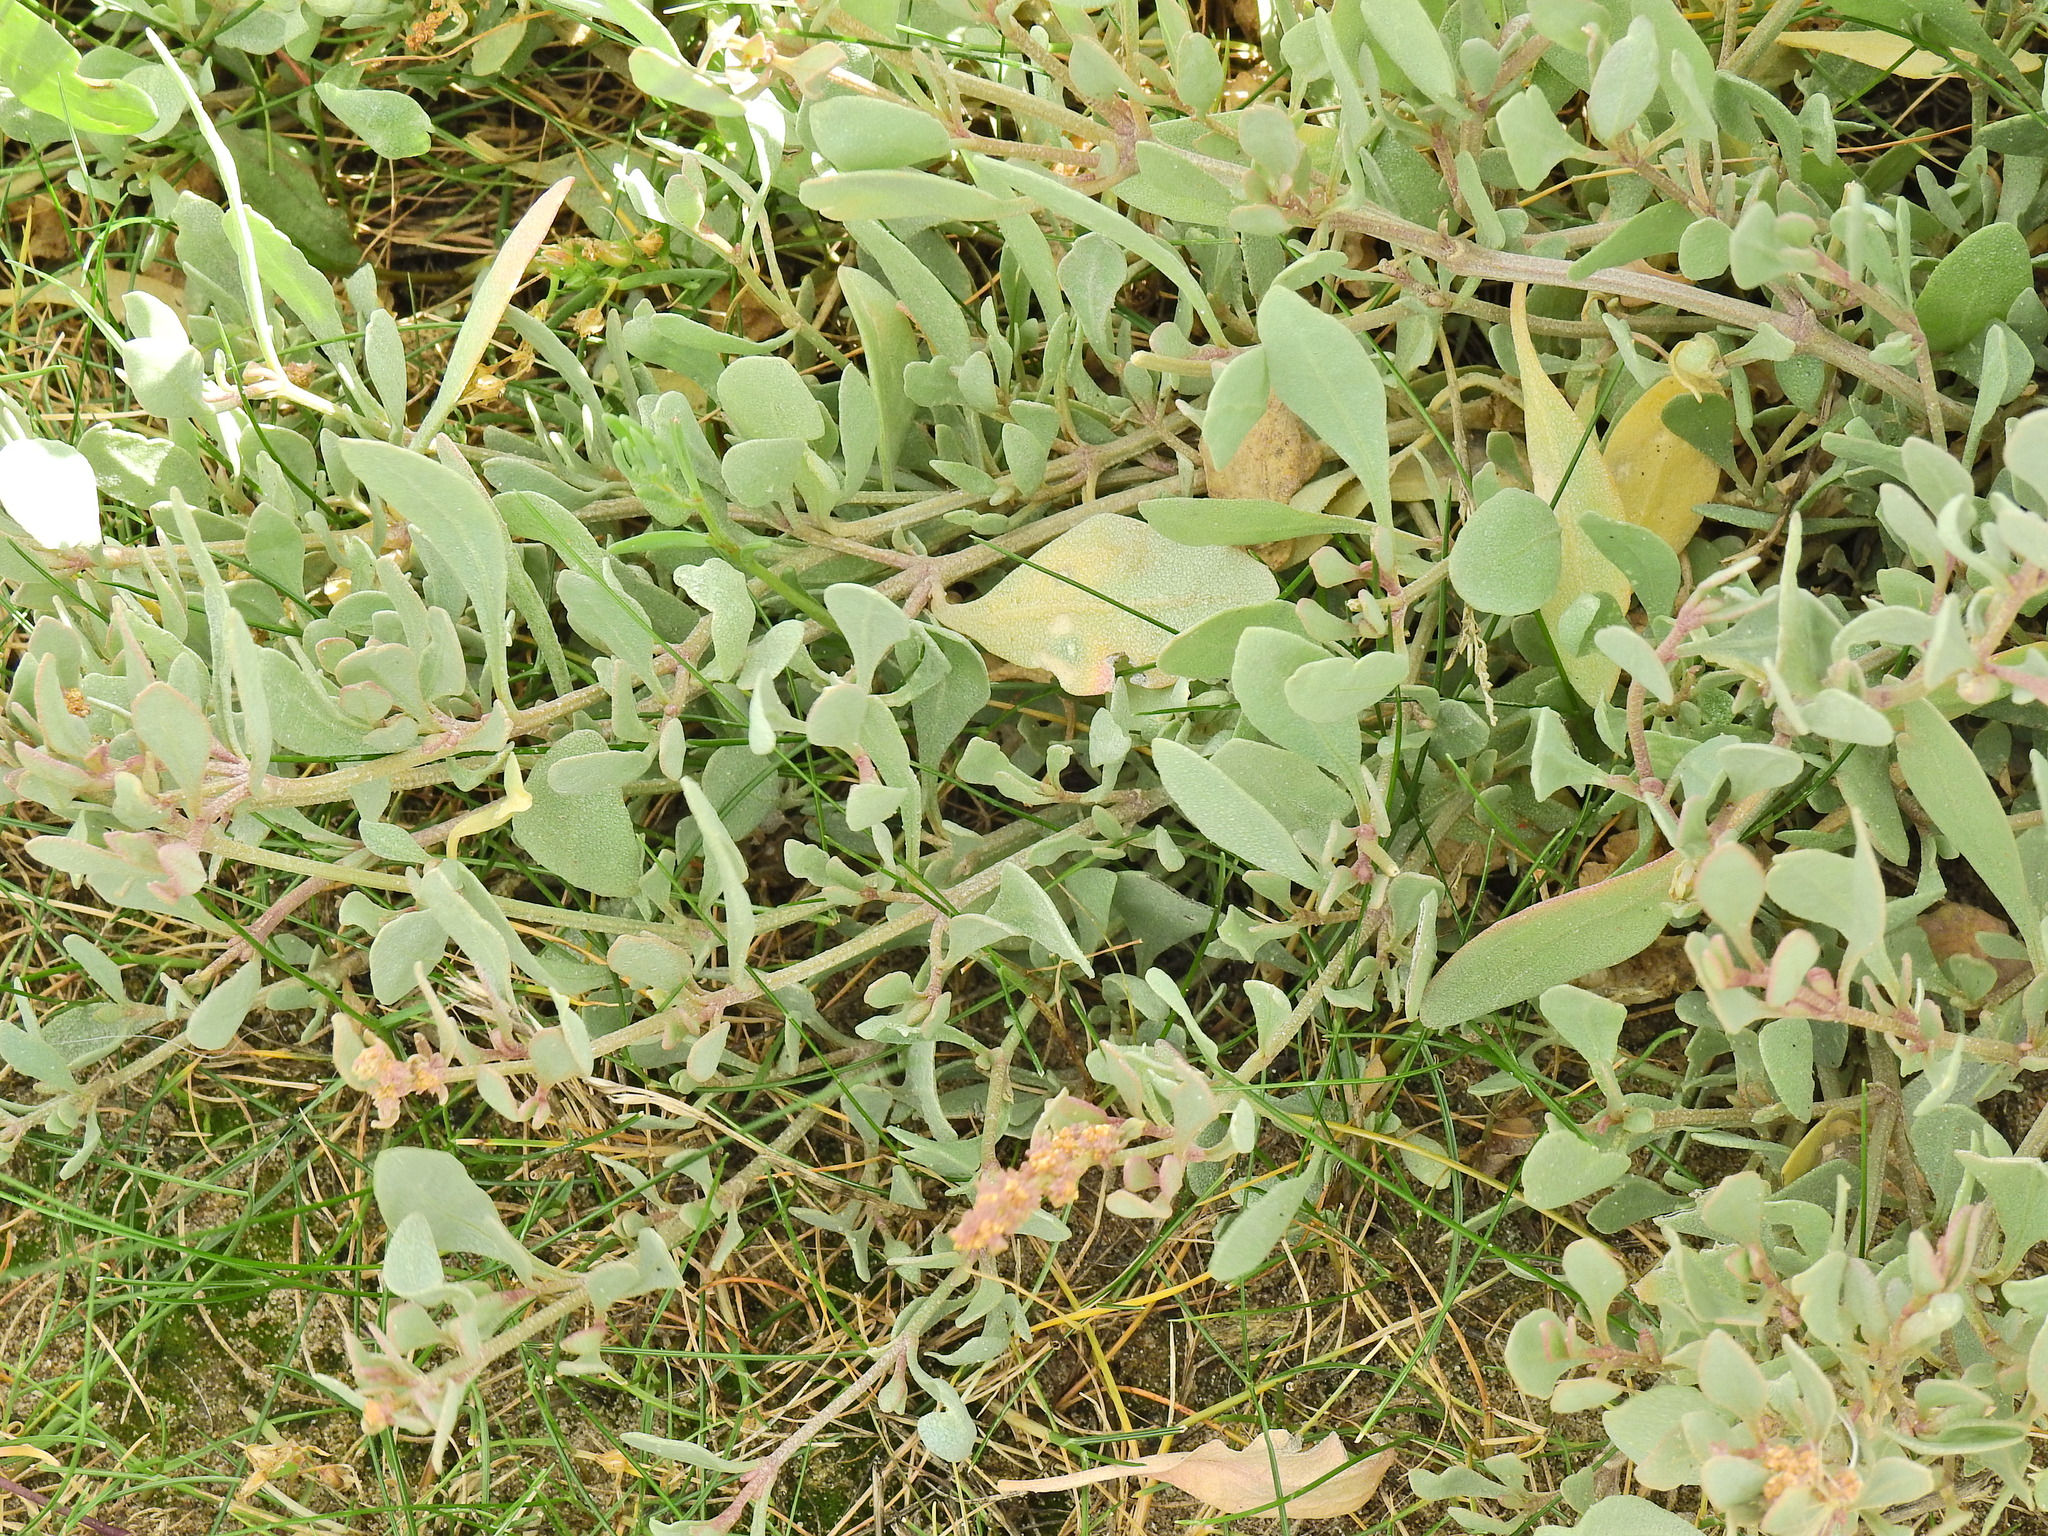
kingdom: Plantae
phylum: Tracheophyta
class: Magnoliopsida
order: Caryophyllales
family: Amaranthaceae
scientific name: Amaranthaceae
